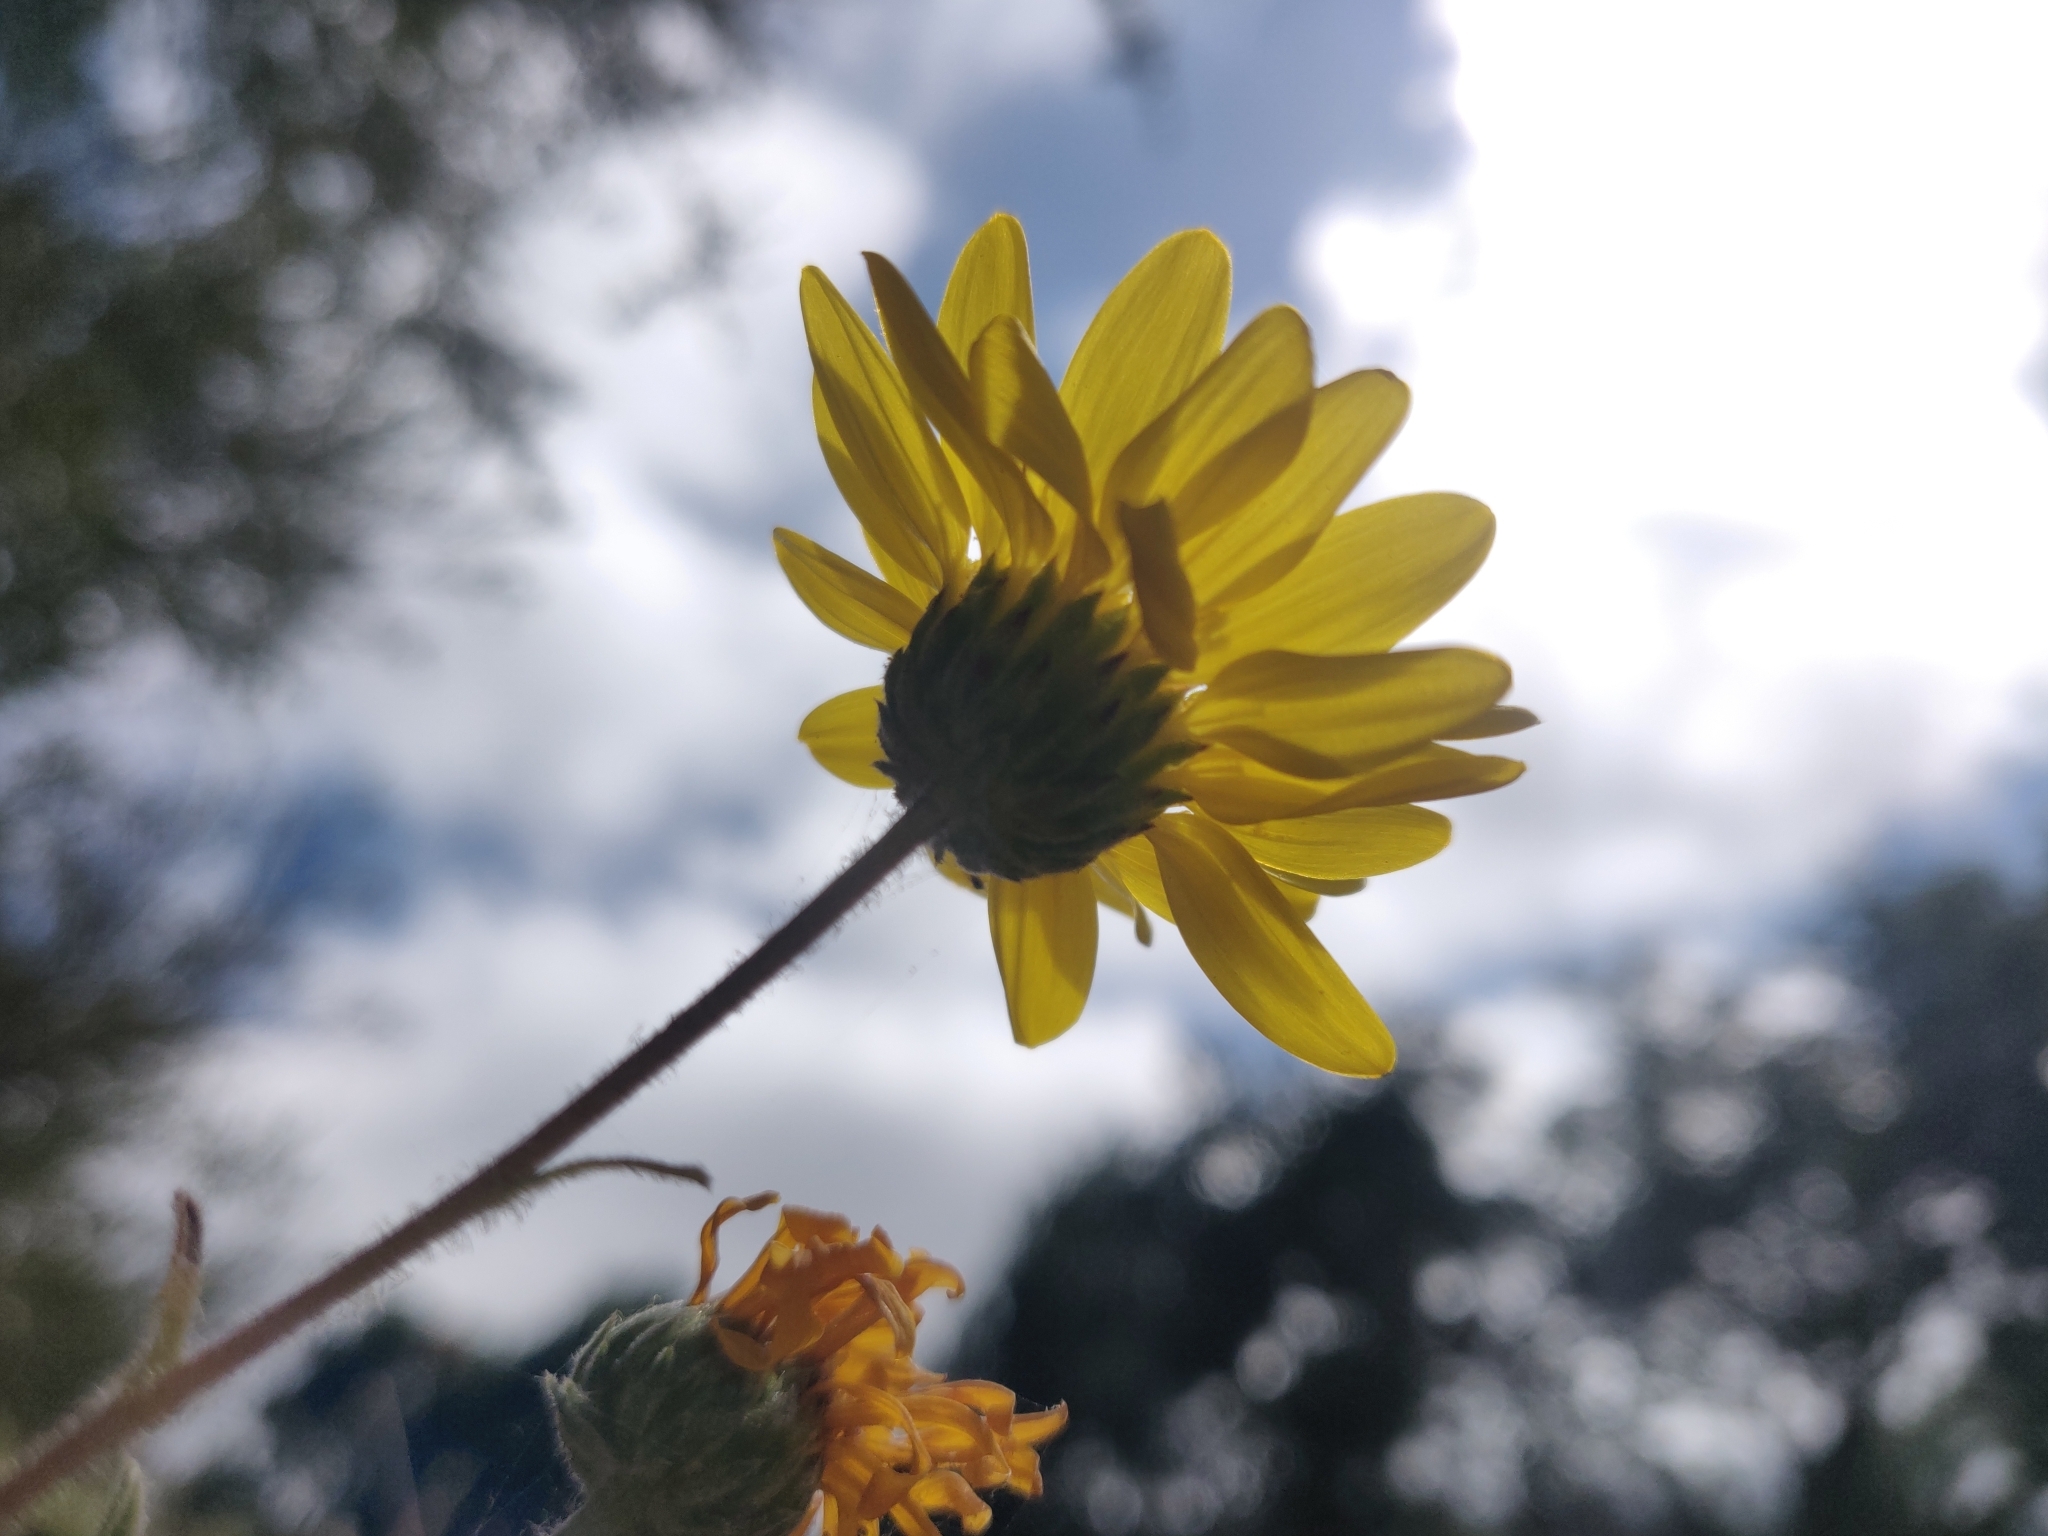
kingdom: Plantae
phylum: Tracheophyta
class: Magnoliopsida
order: Asterales
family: Asteraceae
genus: Grindelia
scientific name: Grindelia hirsutula
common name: Hairy gumweed
